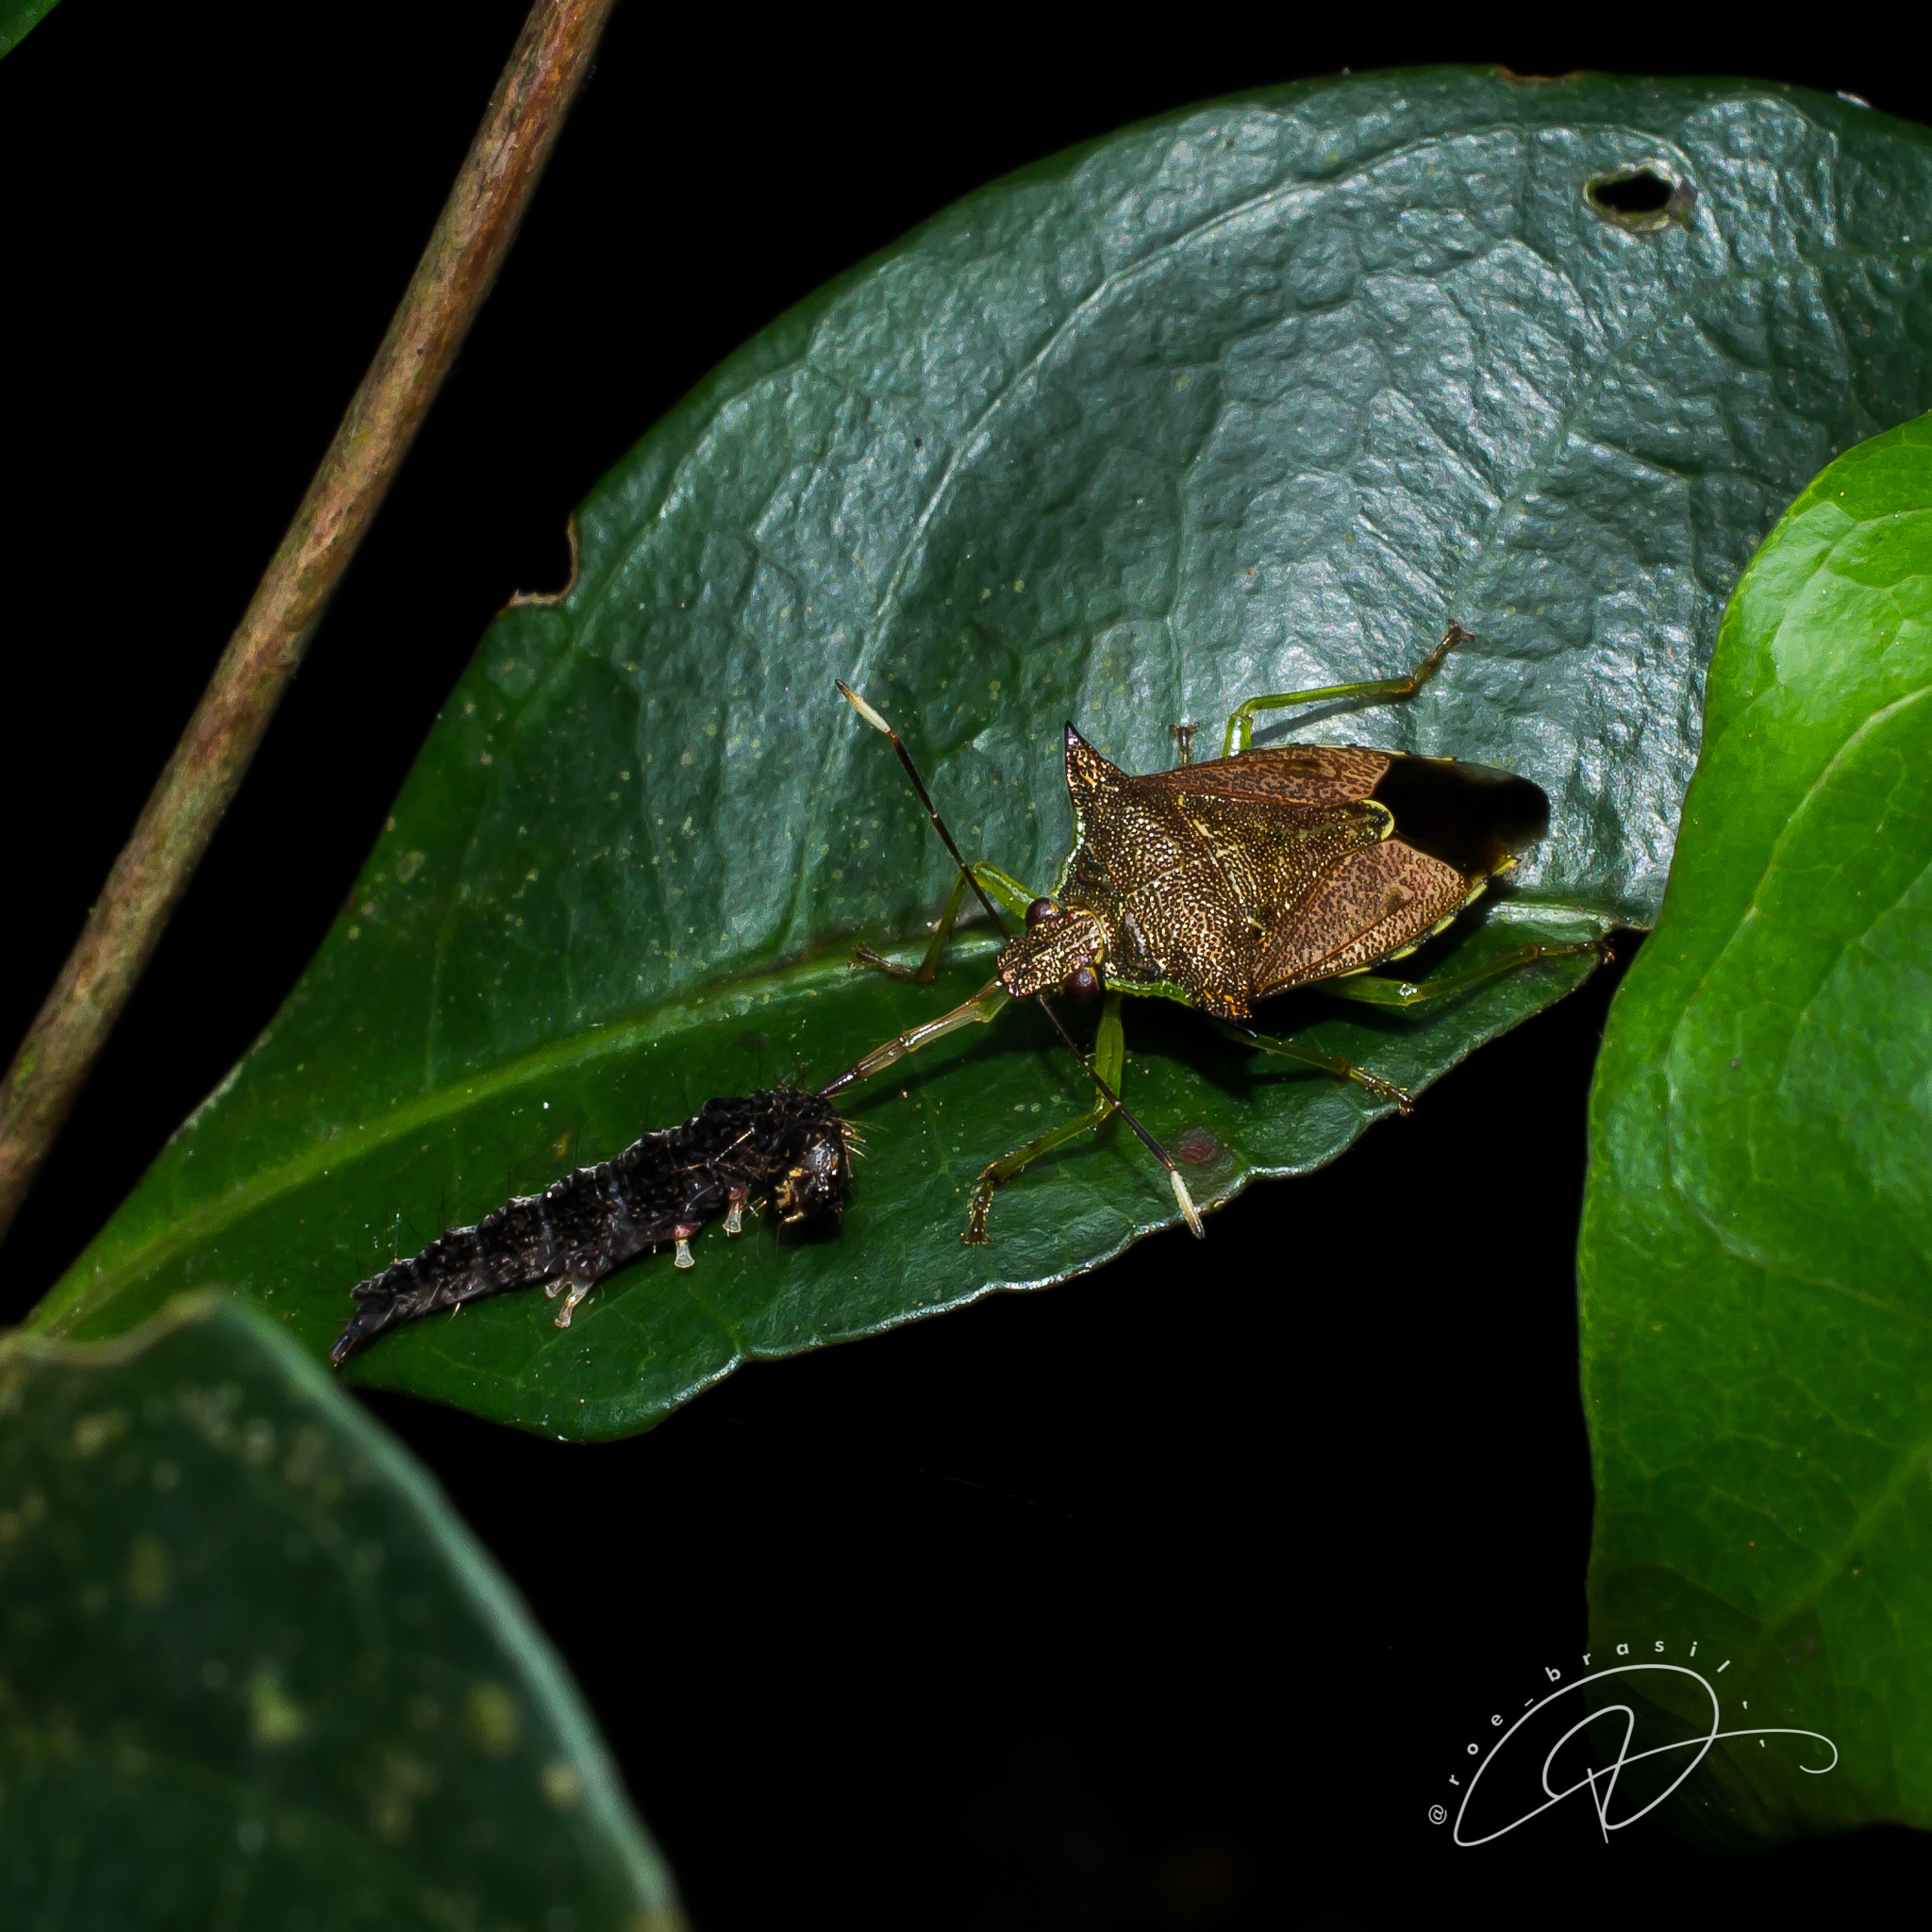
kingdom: Animalia
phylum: Arthropoda
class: Insecta
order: Hemiptera
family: Pentatomidae
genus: Podisus
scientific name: Podisus fuscescens
